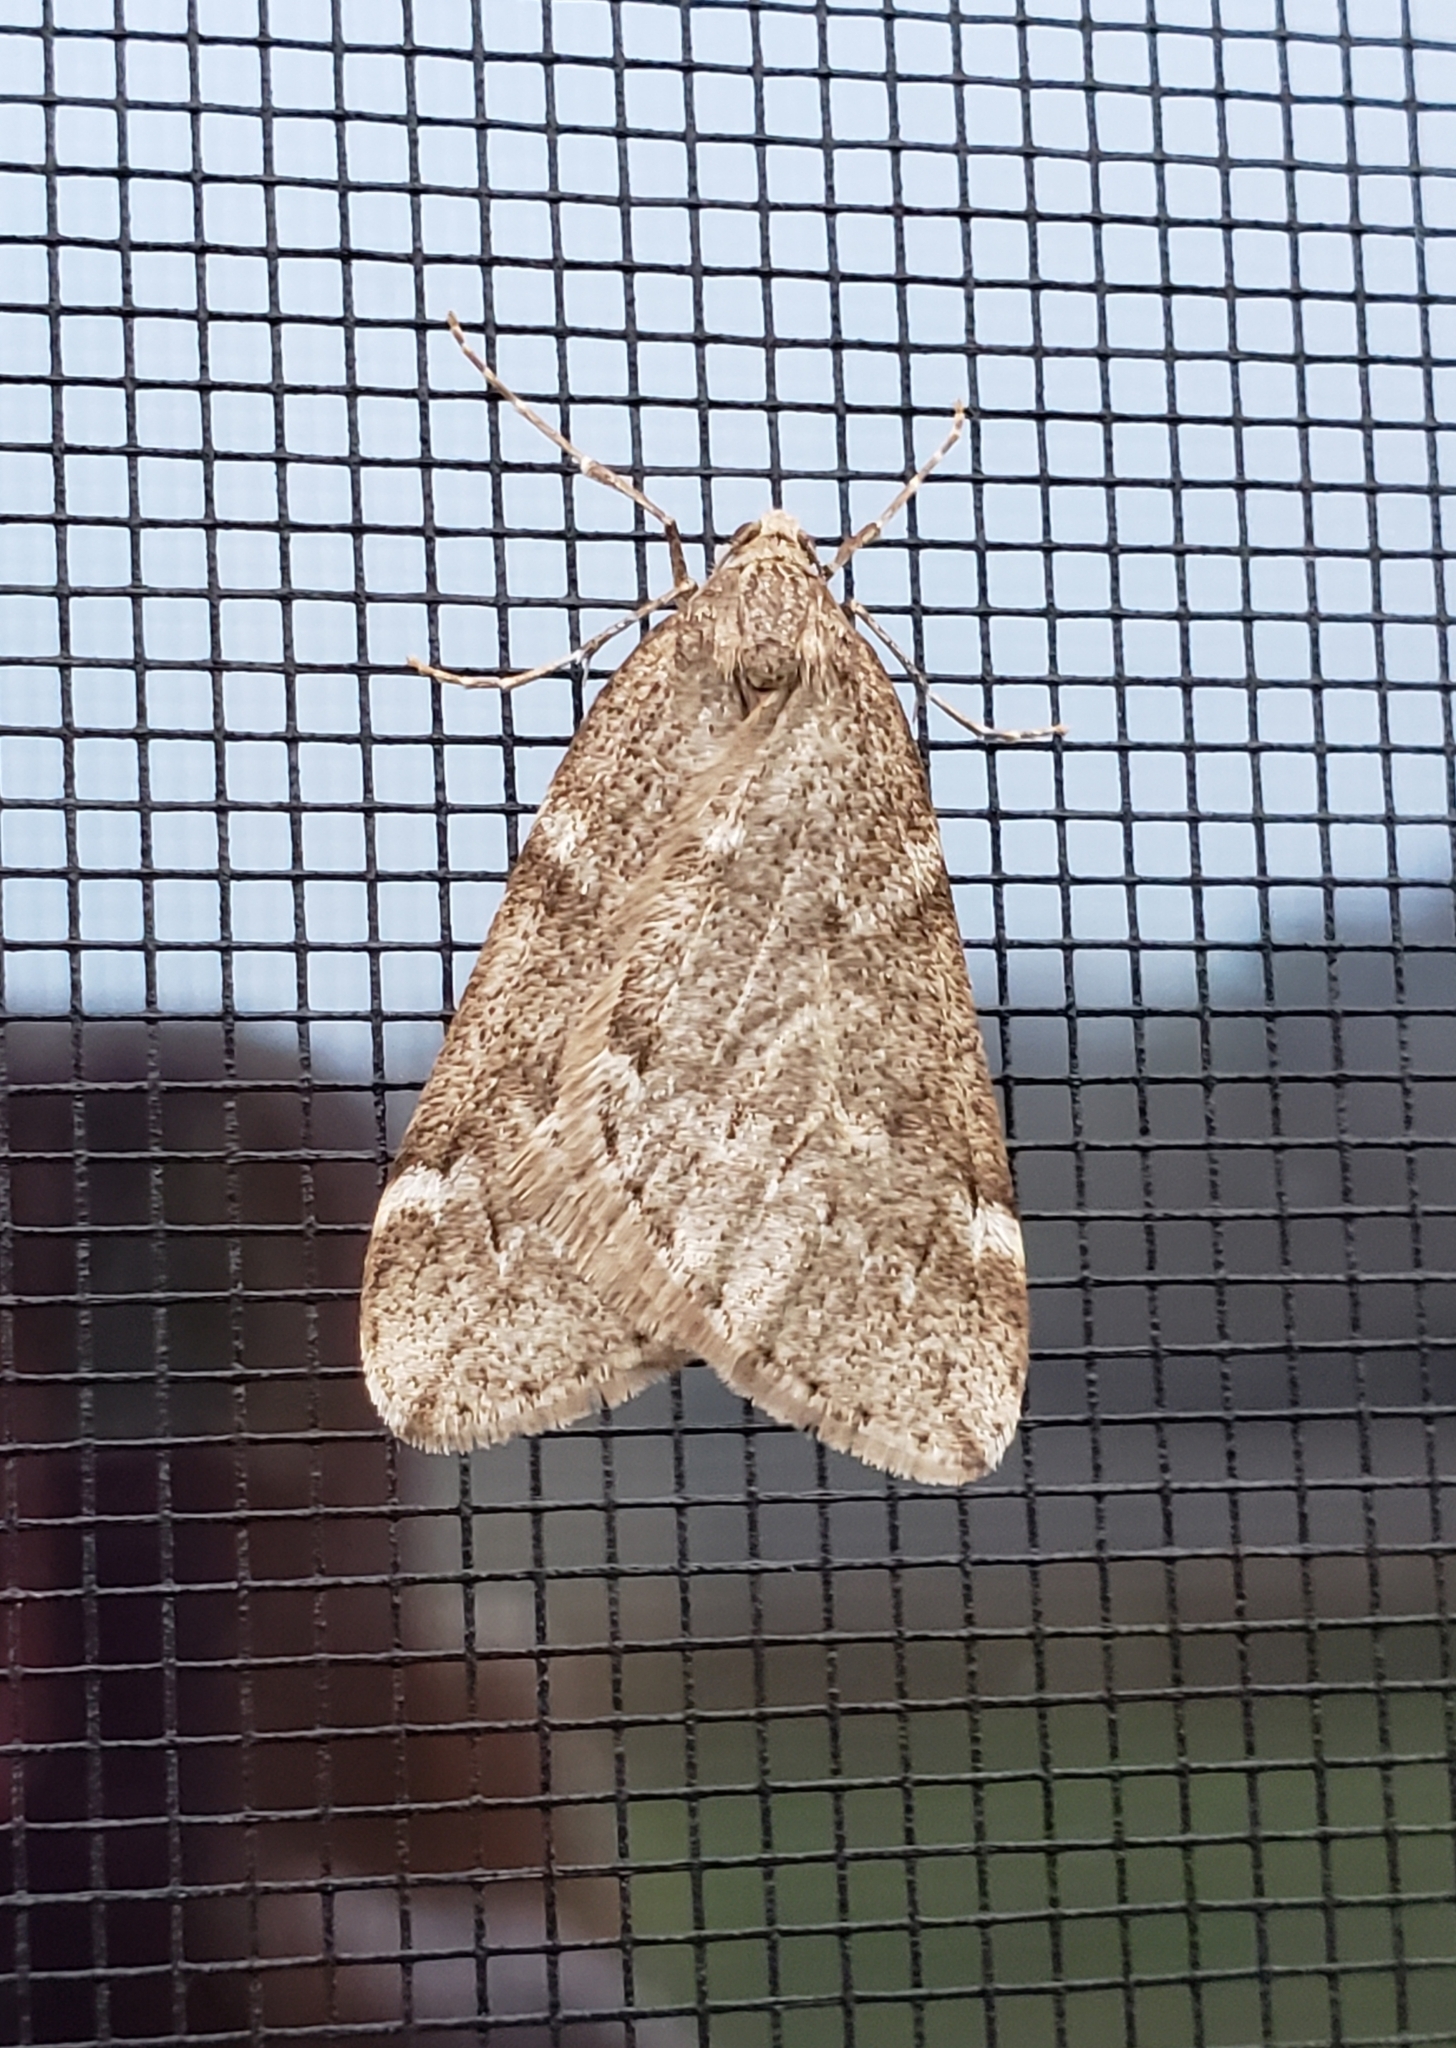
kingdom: Animalia
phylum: Arthropoda
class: Insecta
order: Lepidoptera
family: Geometridae
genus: Alsophila
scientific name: Alsophila pometaria
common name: Fall cankerworm
